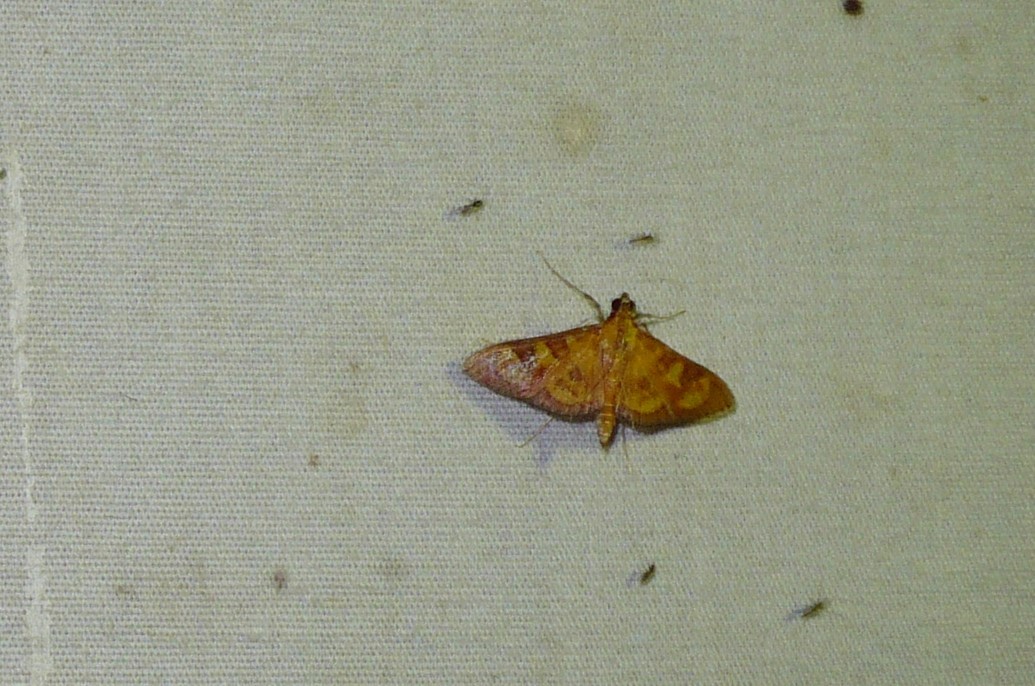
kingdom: Animalia
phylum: Arthropoda
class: Insecta
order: Lepidoptera
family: Crambidae
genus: Trithyris
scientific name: Trithyris
